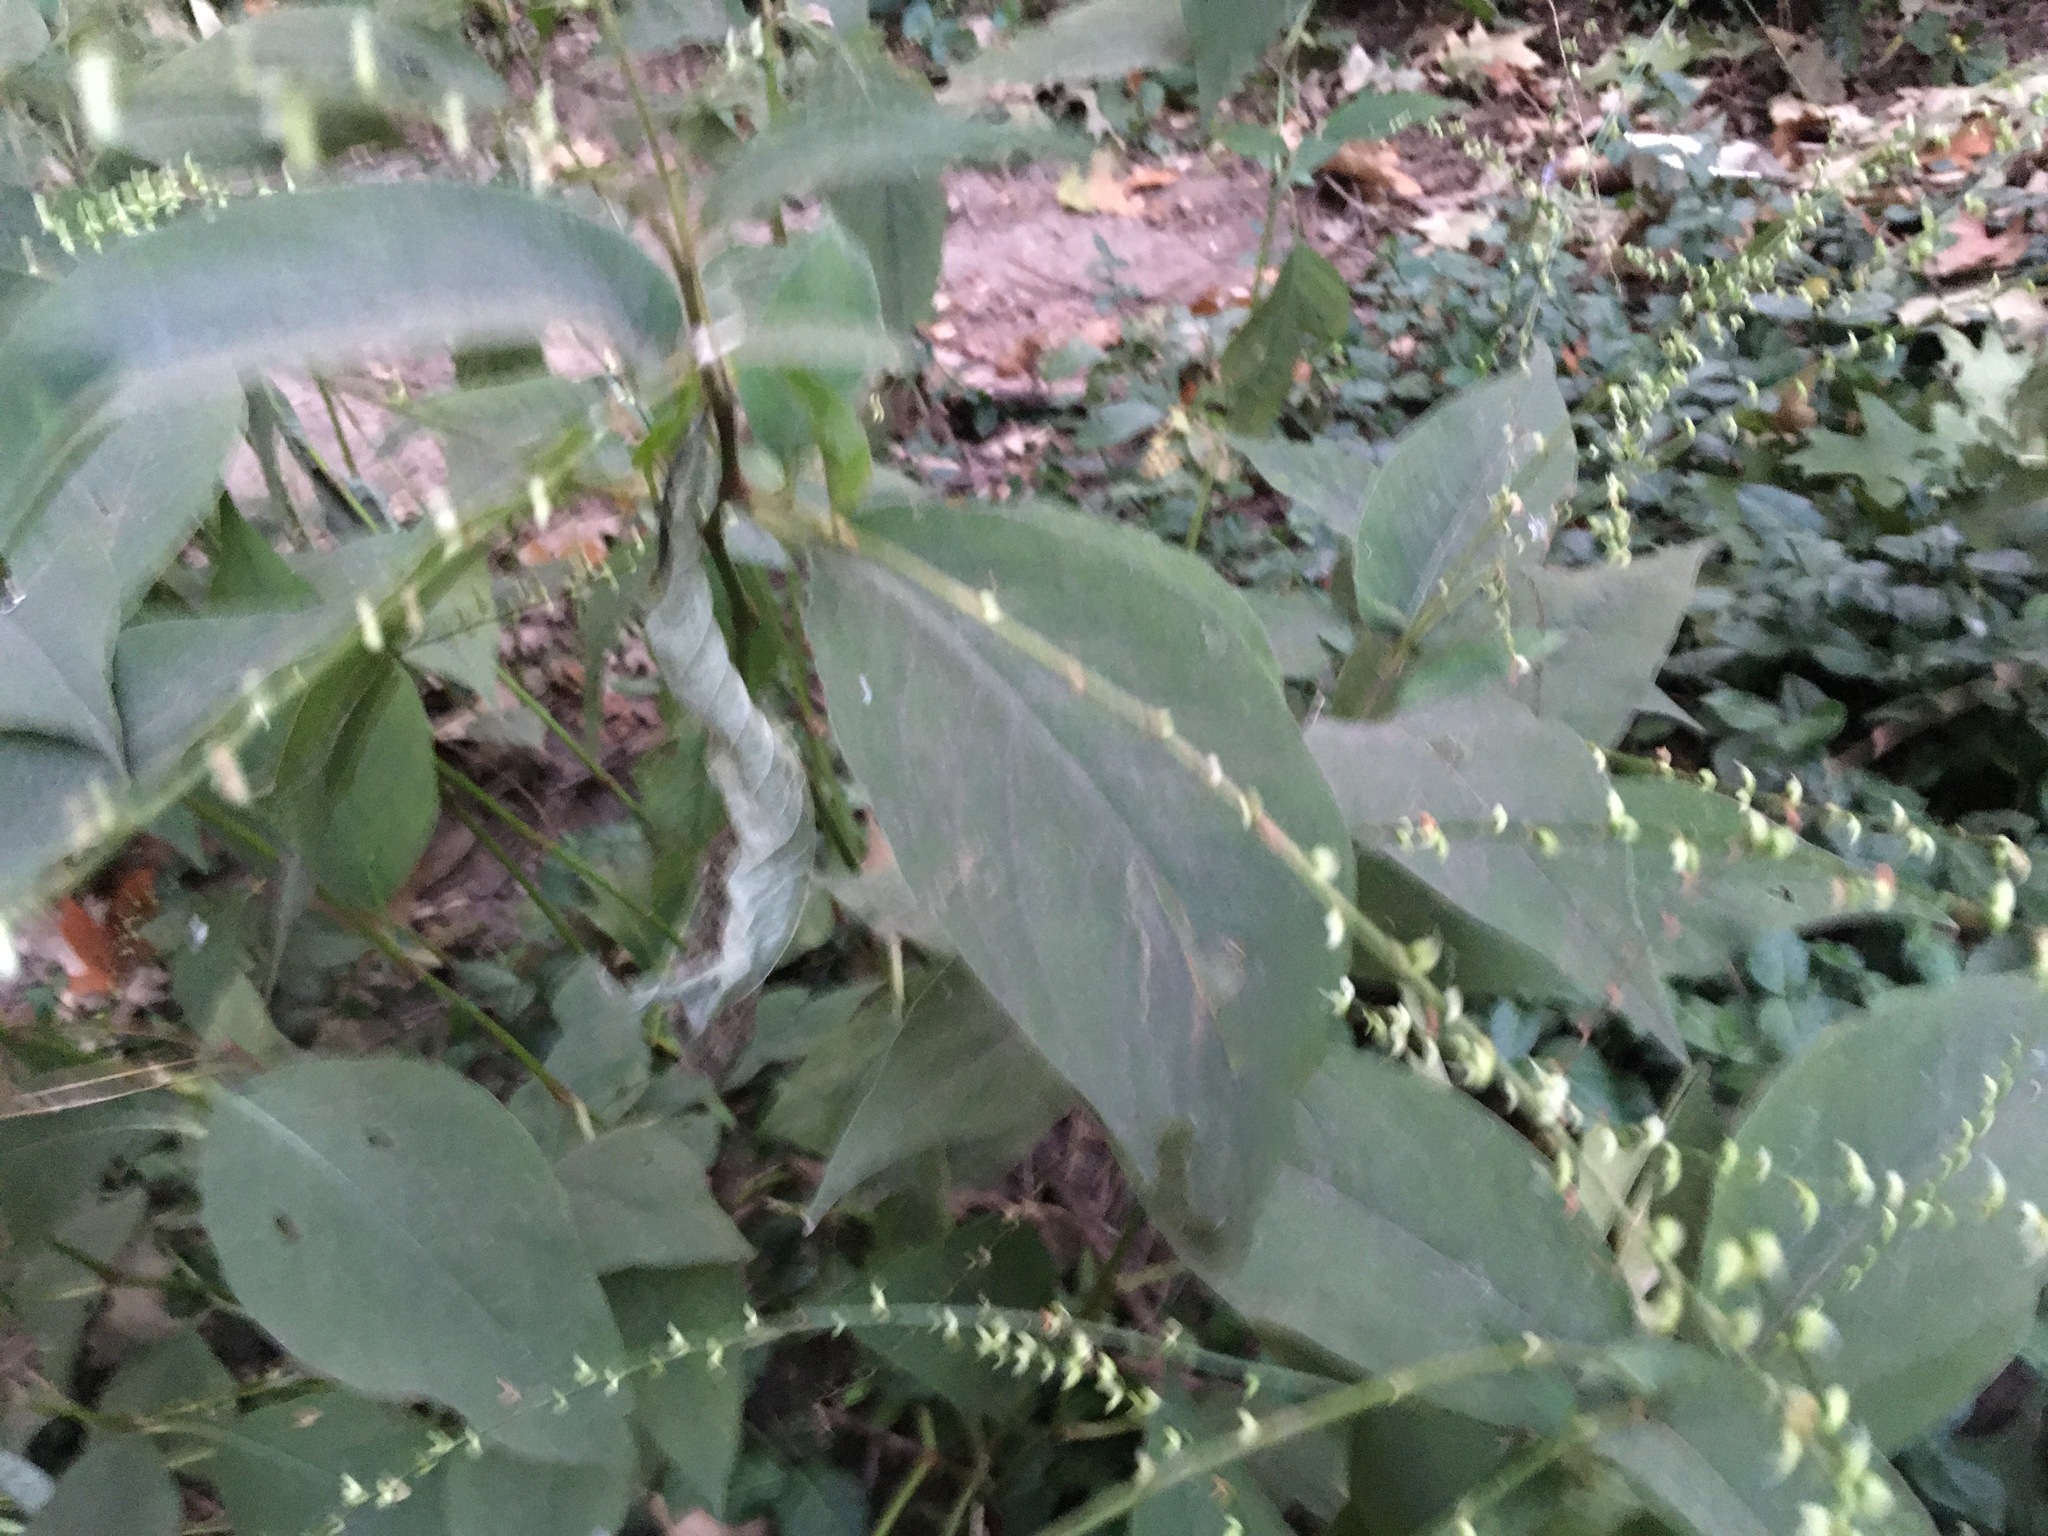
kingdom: Plantae
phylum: Tracheophyta
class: Magnoliopsida
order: Caryophyllales
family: Polygonaceae
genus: Persicaria
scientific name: Persicaria virginiana
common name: Jumpseed
